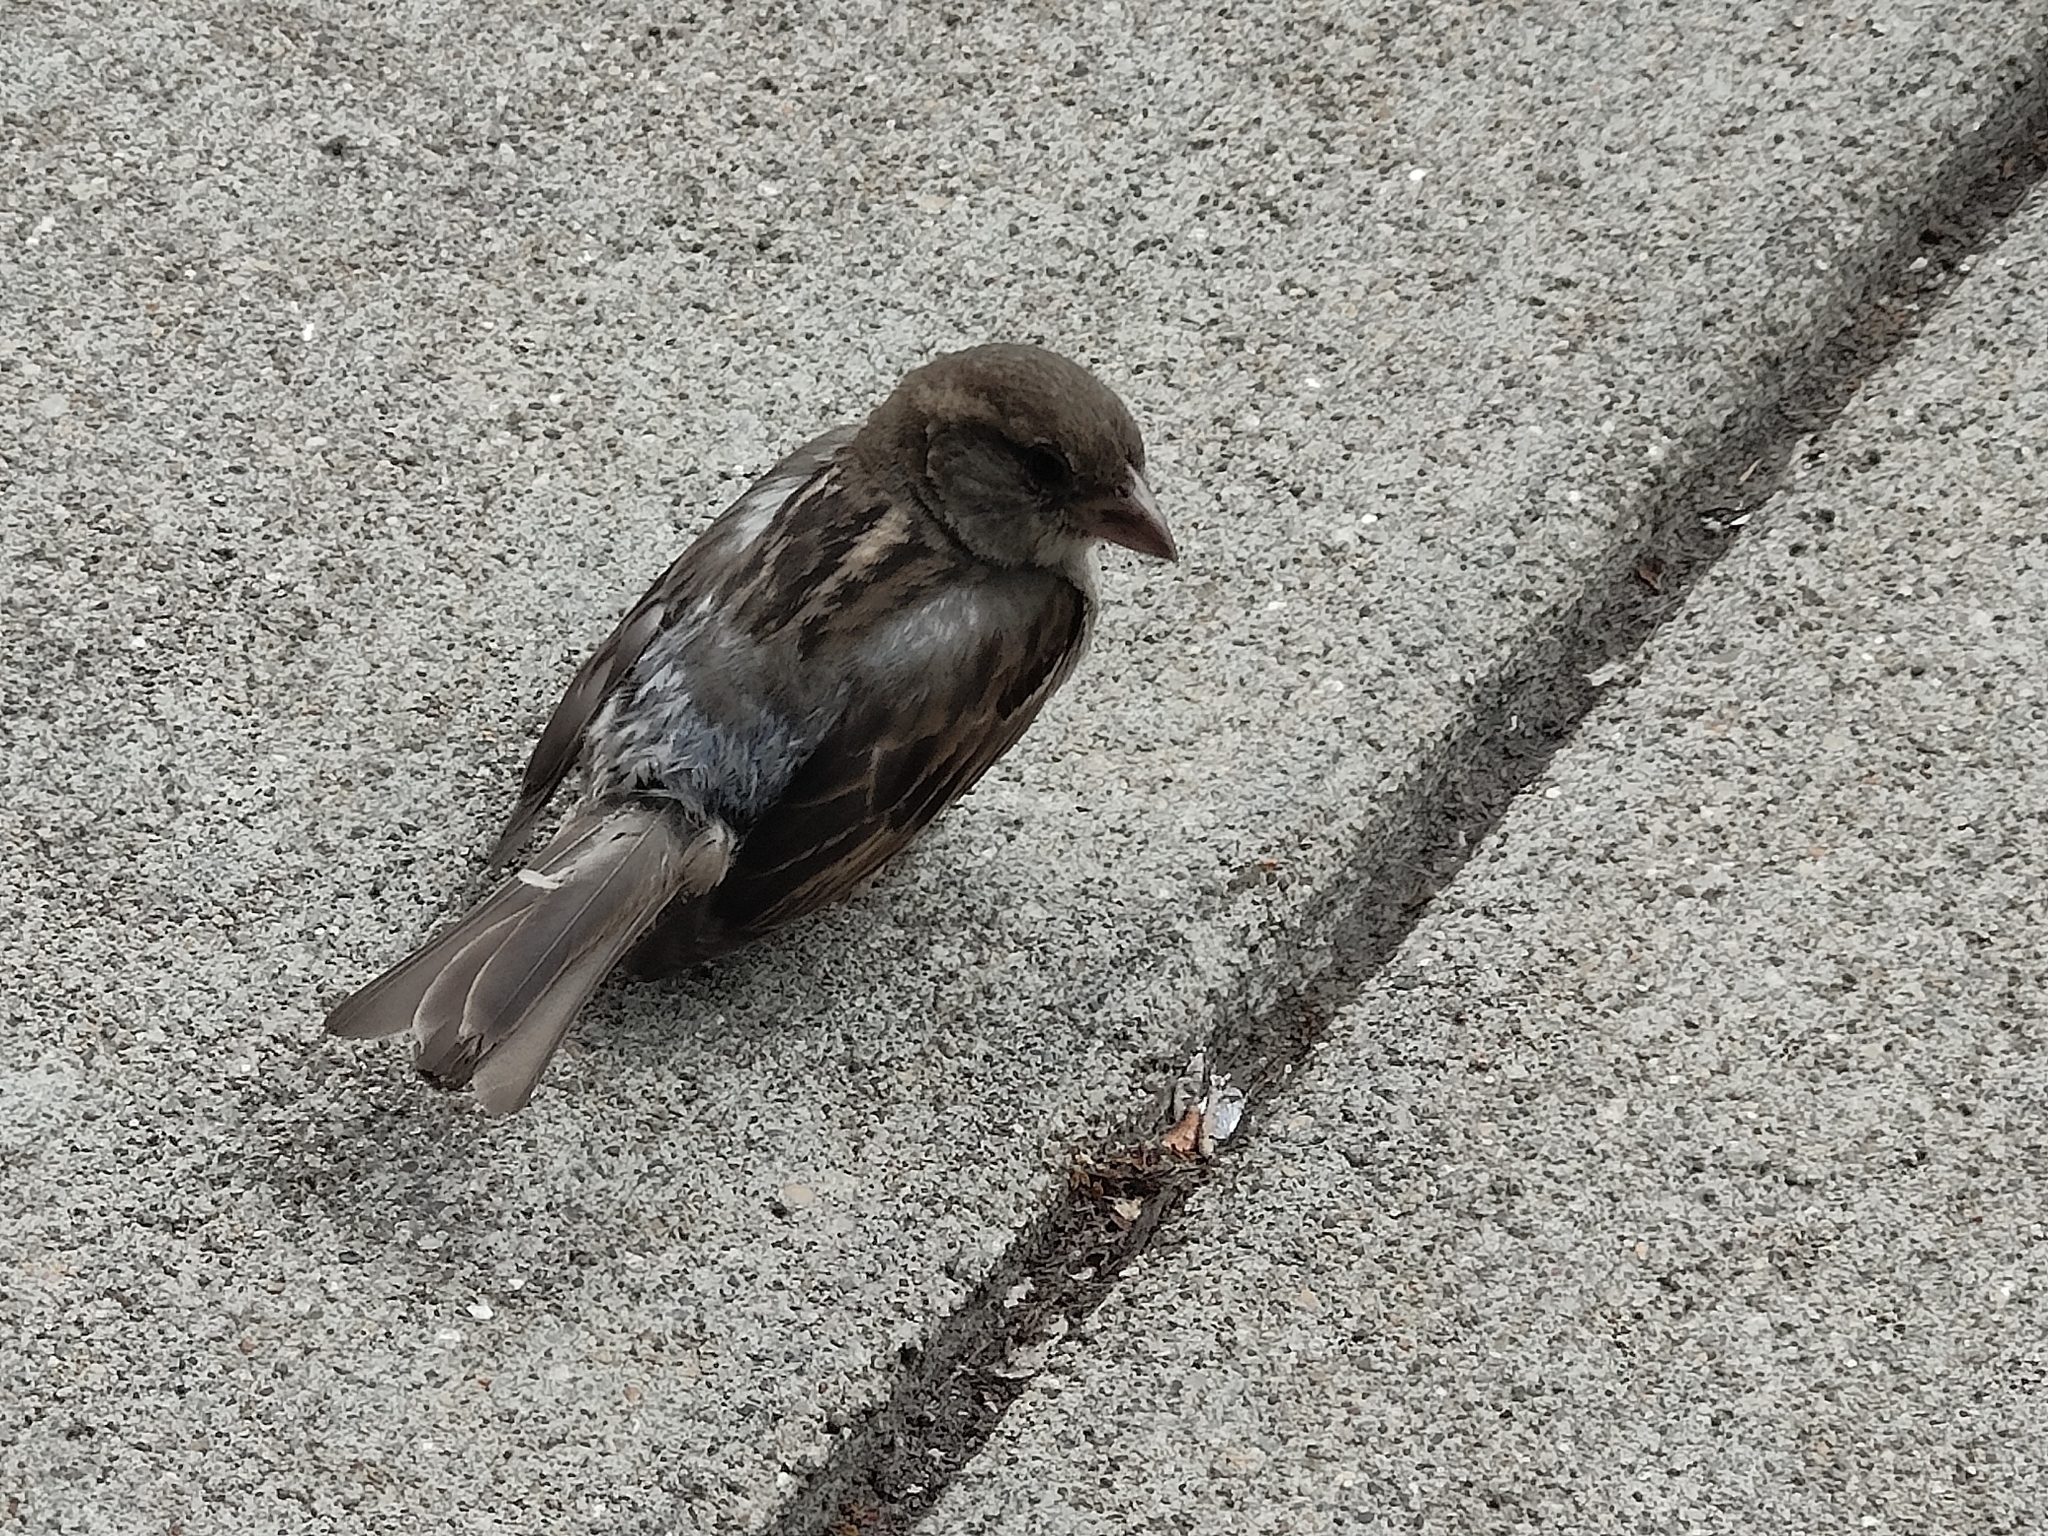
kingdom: Animalia
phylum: Chordata
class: Aves
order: Passeriformes
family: Passeridae
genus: Passer
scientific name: Passer domesticus
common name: House sparrow
